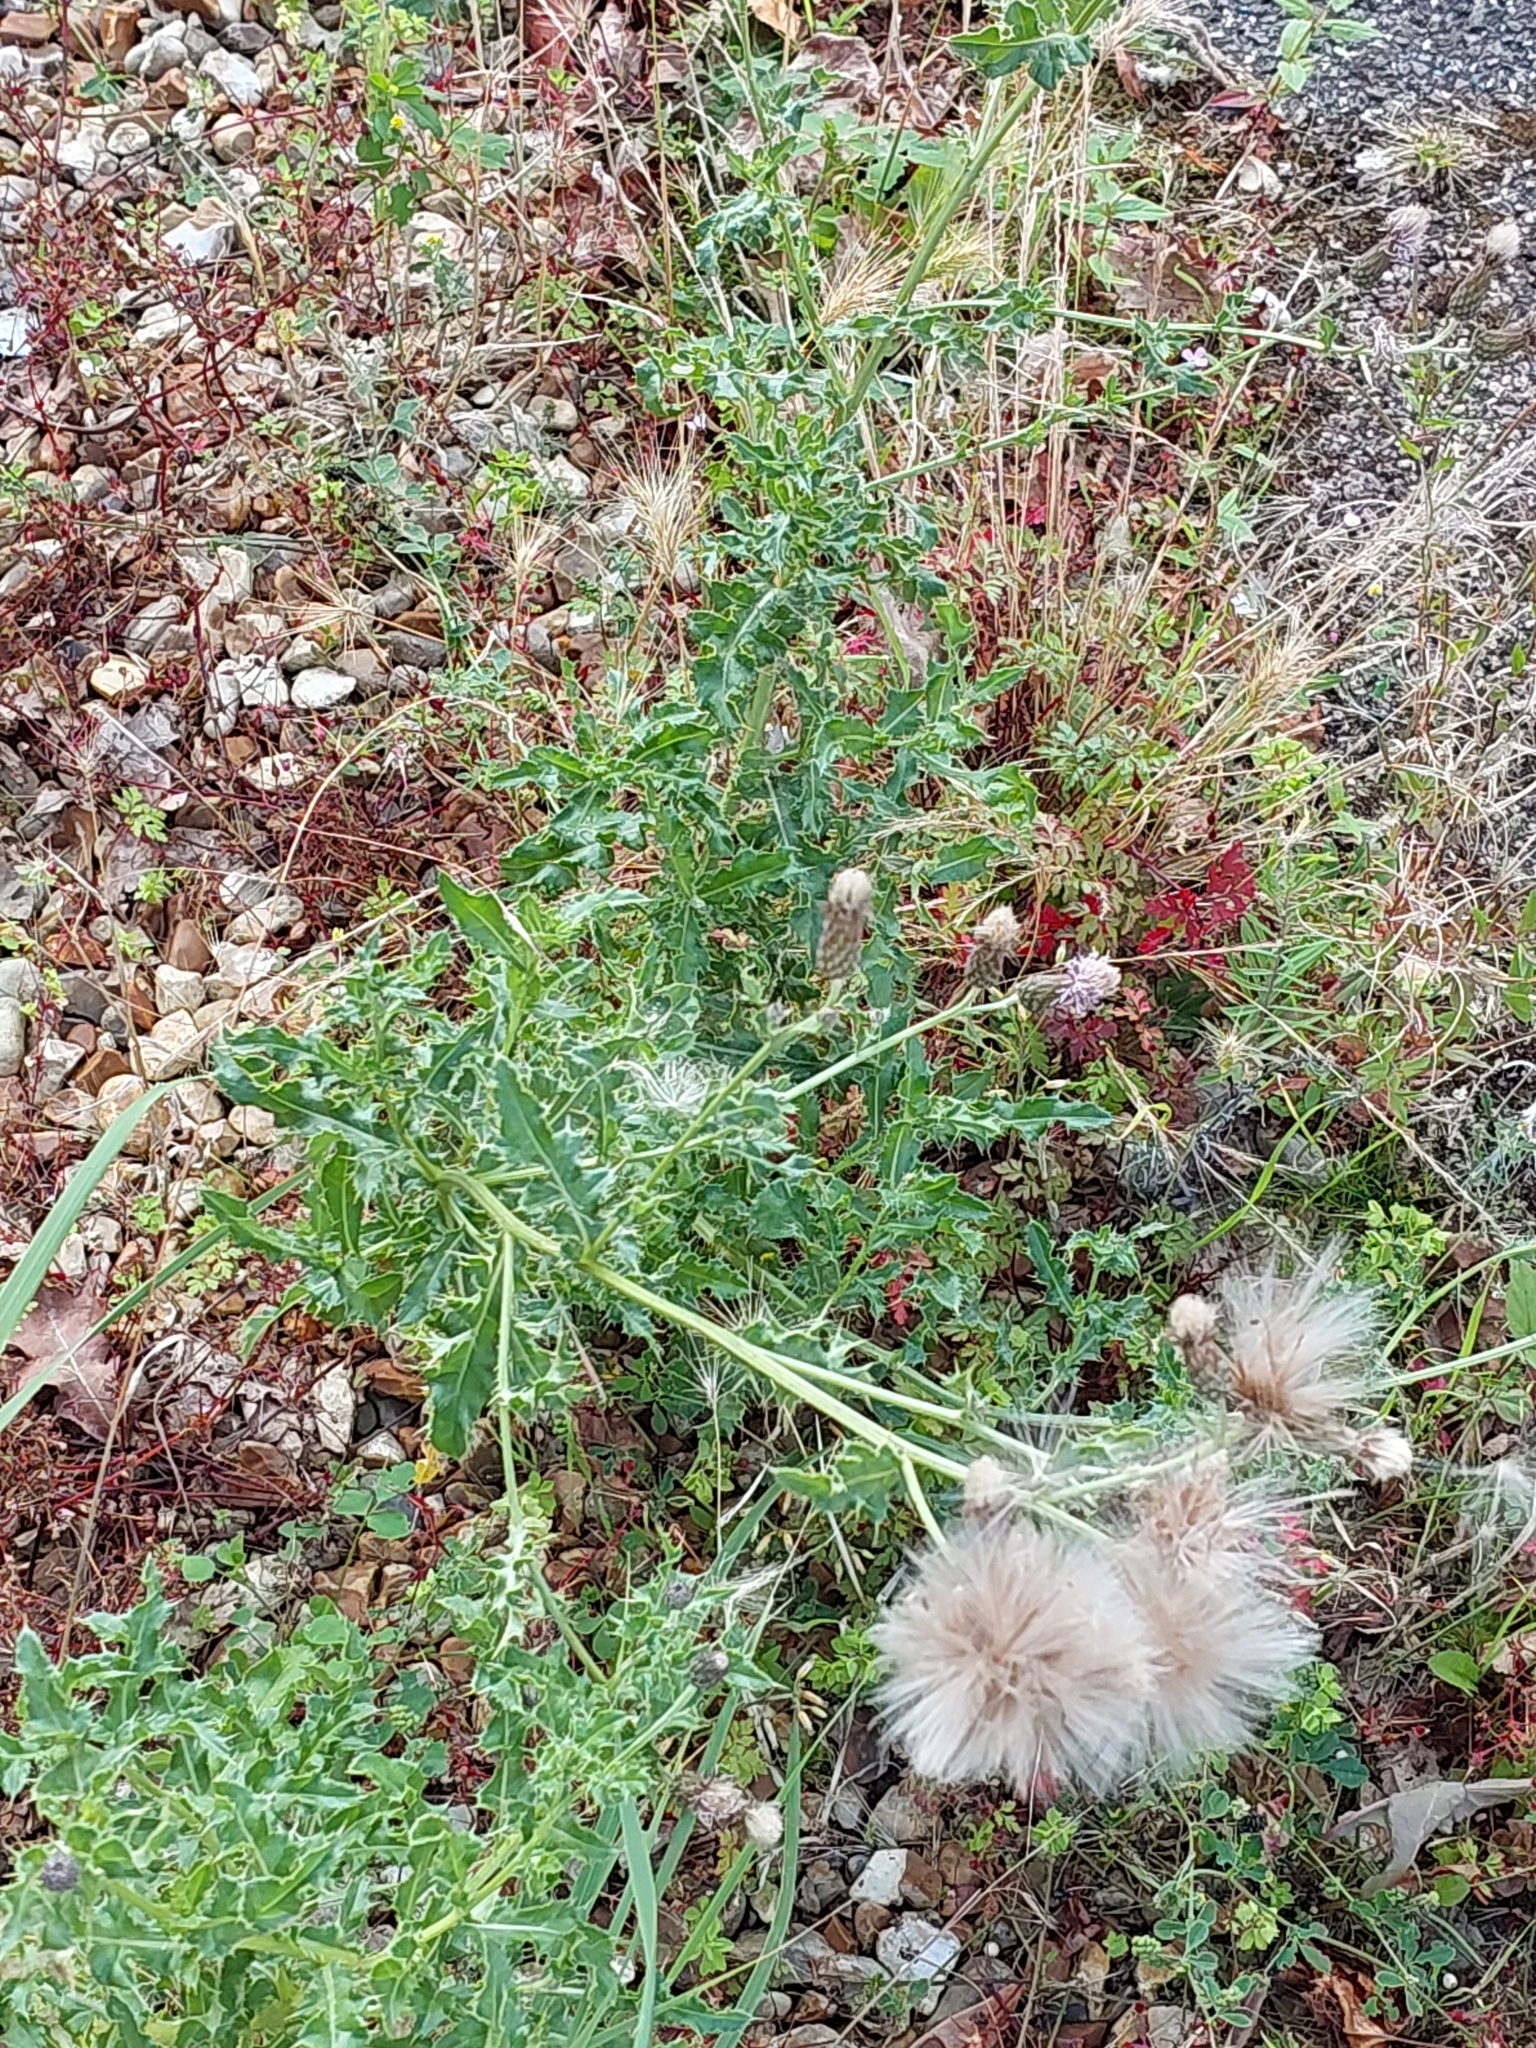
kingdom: Plantae
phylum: Tracheophyta
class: Magnoliopsida
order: Asterales
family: Asteraceae
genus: Cirsium
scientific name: Cirsium arvense
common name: Creeping thistle
